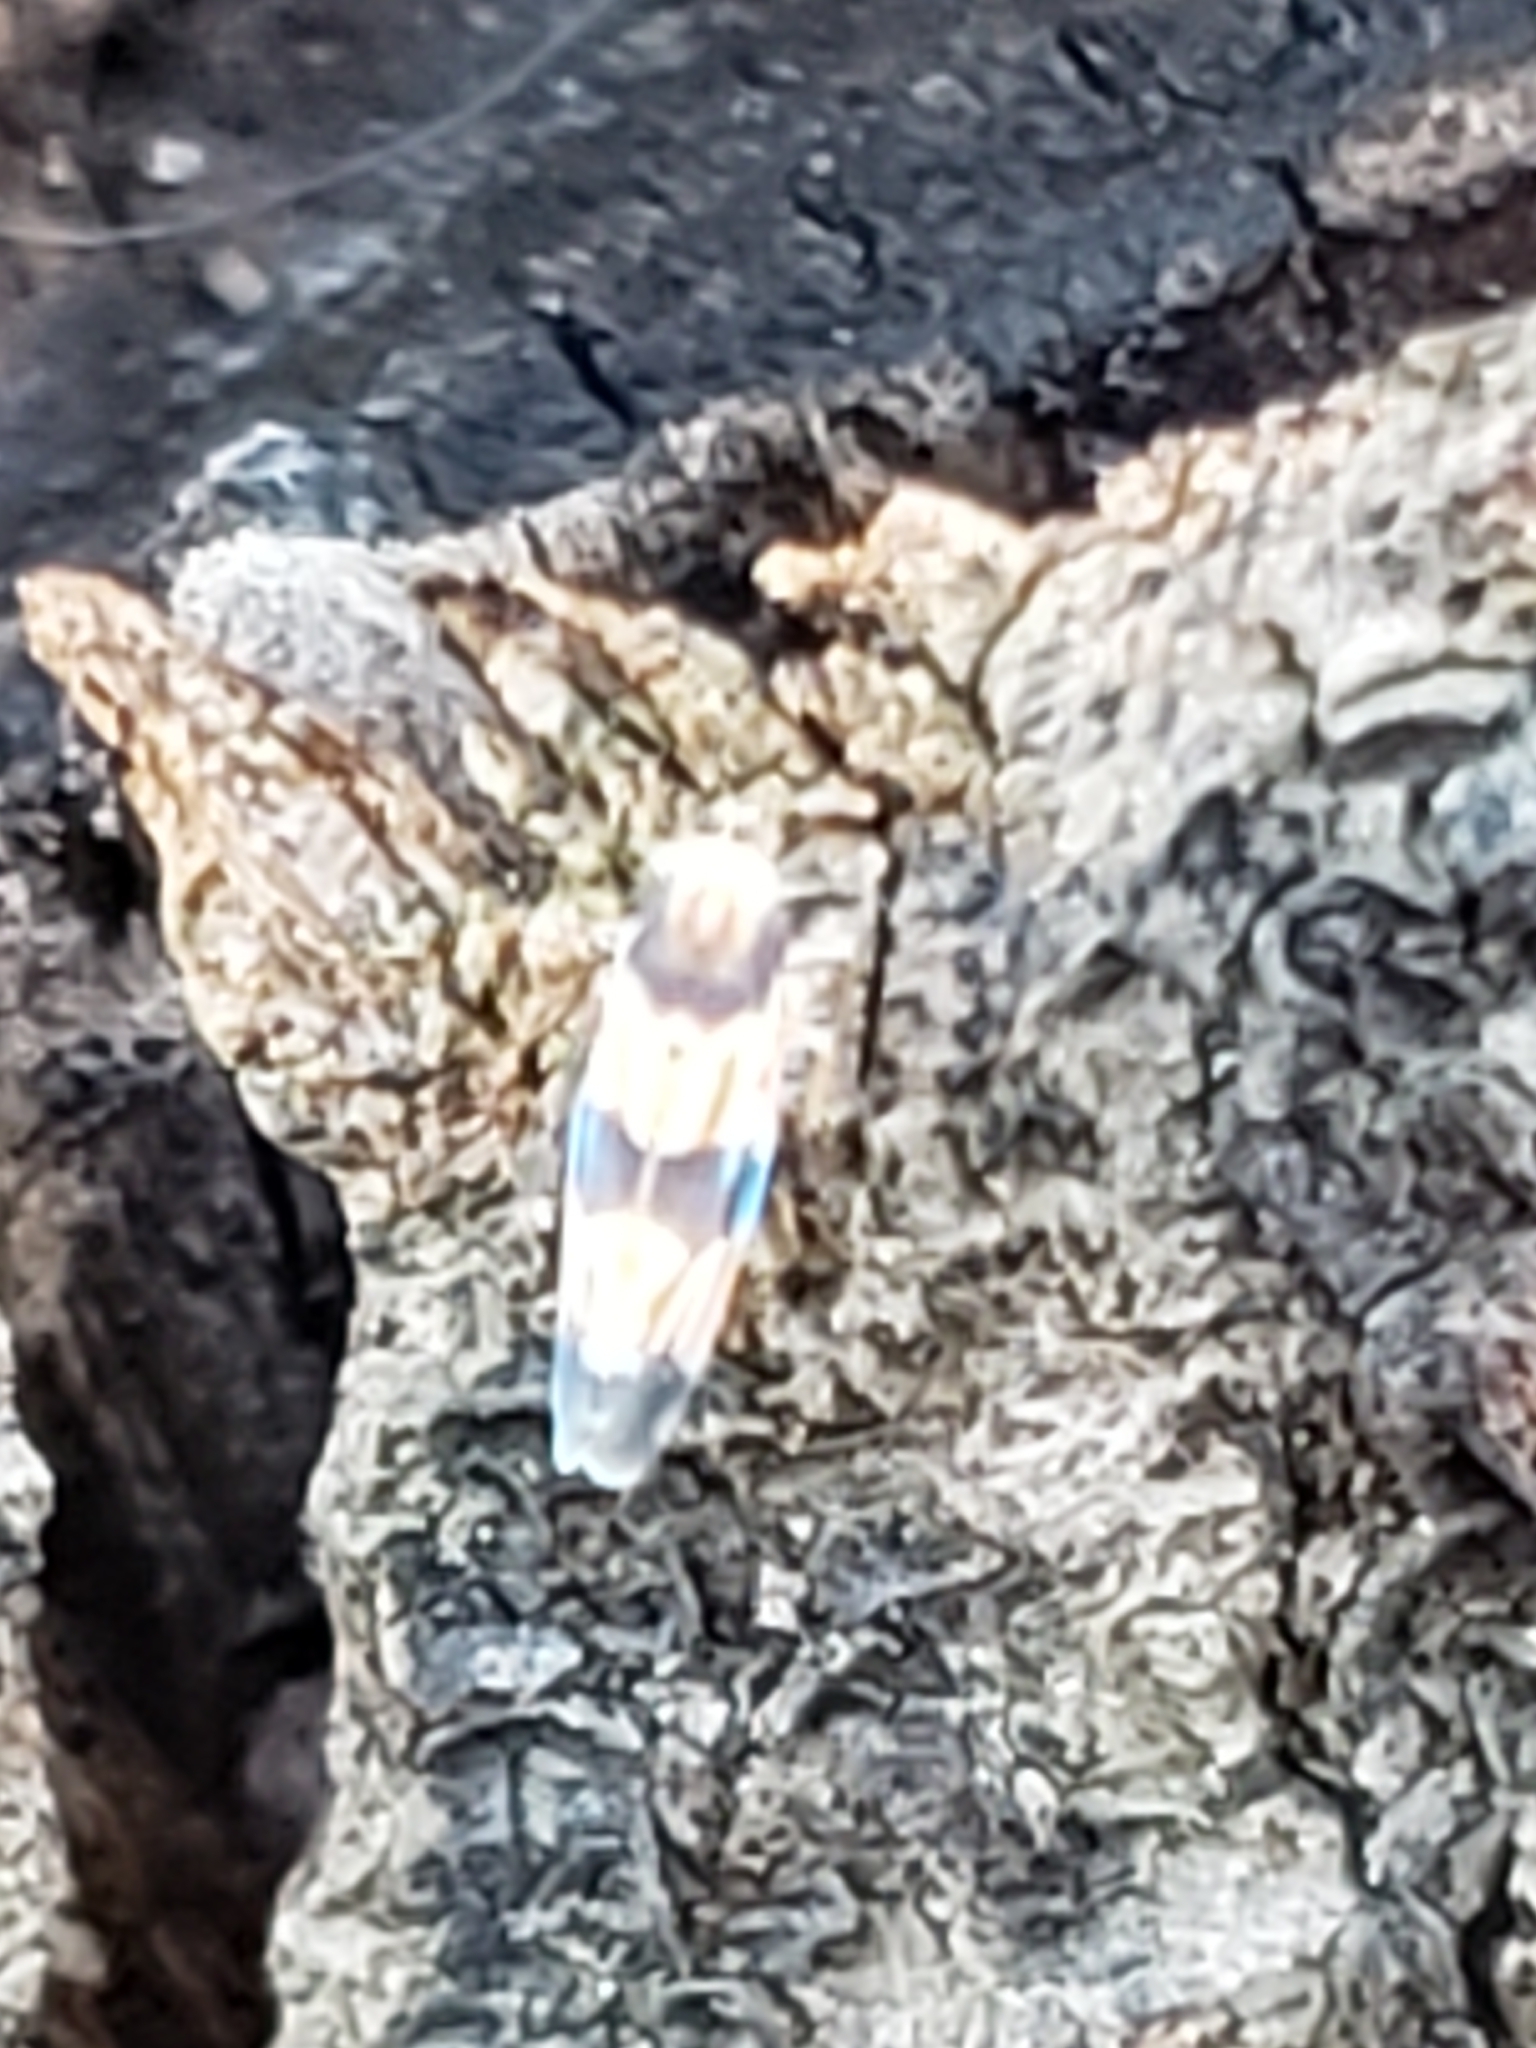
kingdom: Animalia
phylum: Arthropoda
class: Insecta
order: Hemiptera
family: Cicadellidae
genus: Erythroneura
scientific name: Erythroneura tricincta
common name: The threebanded grape leafhopper
